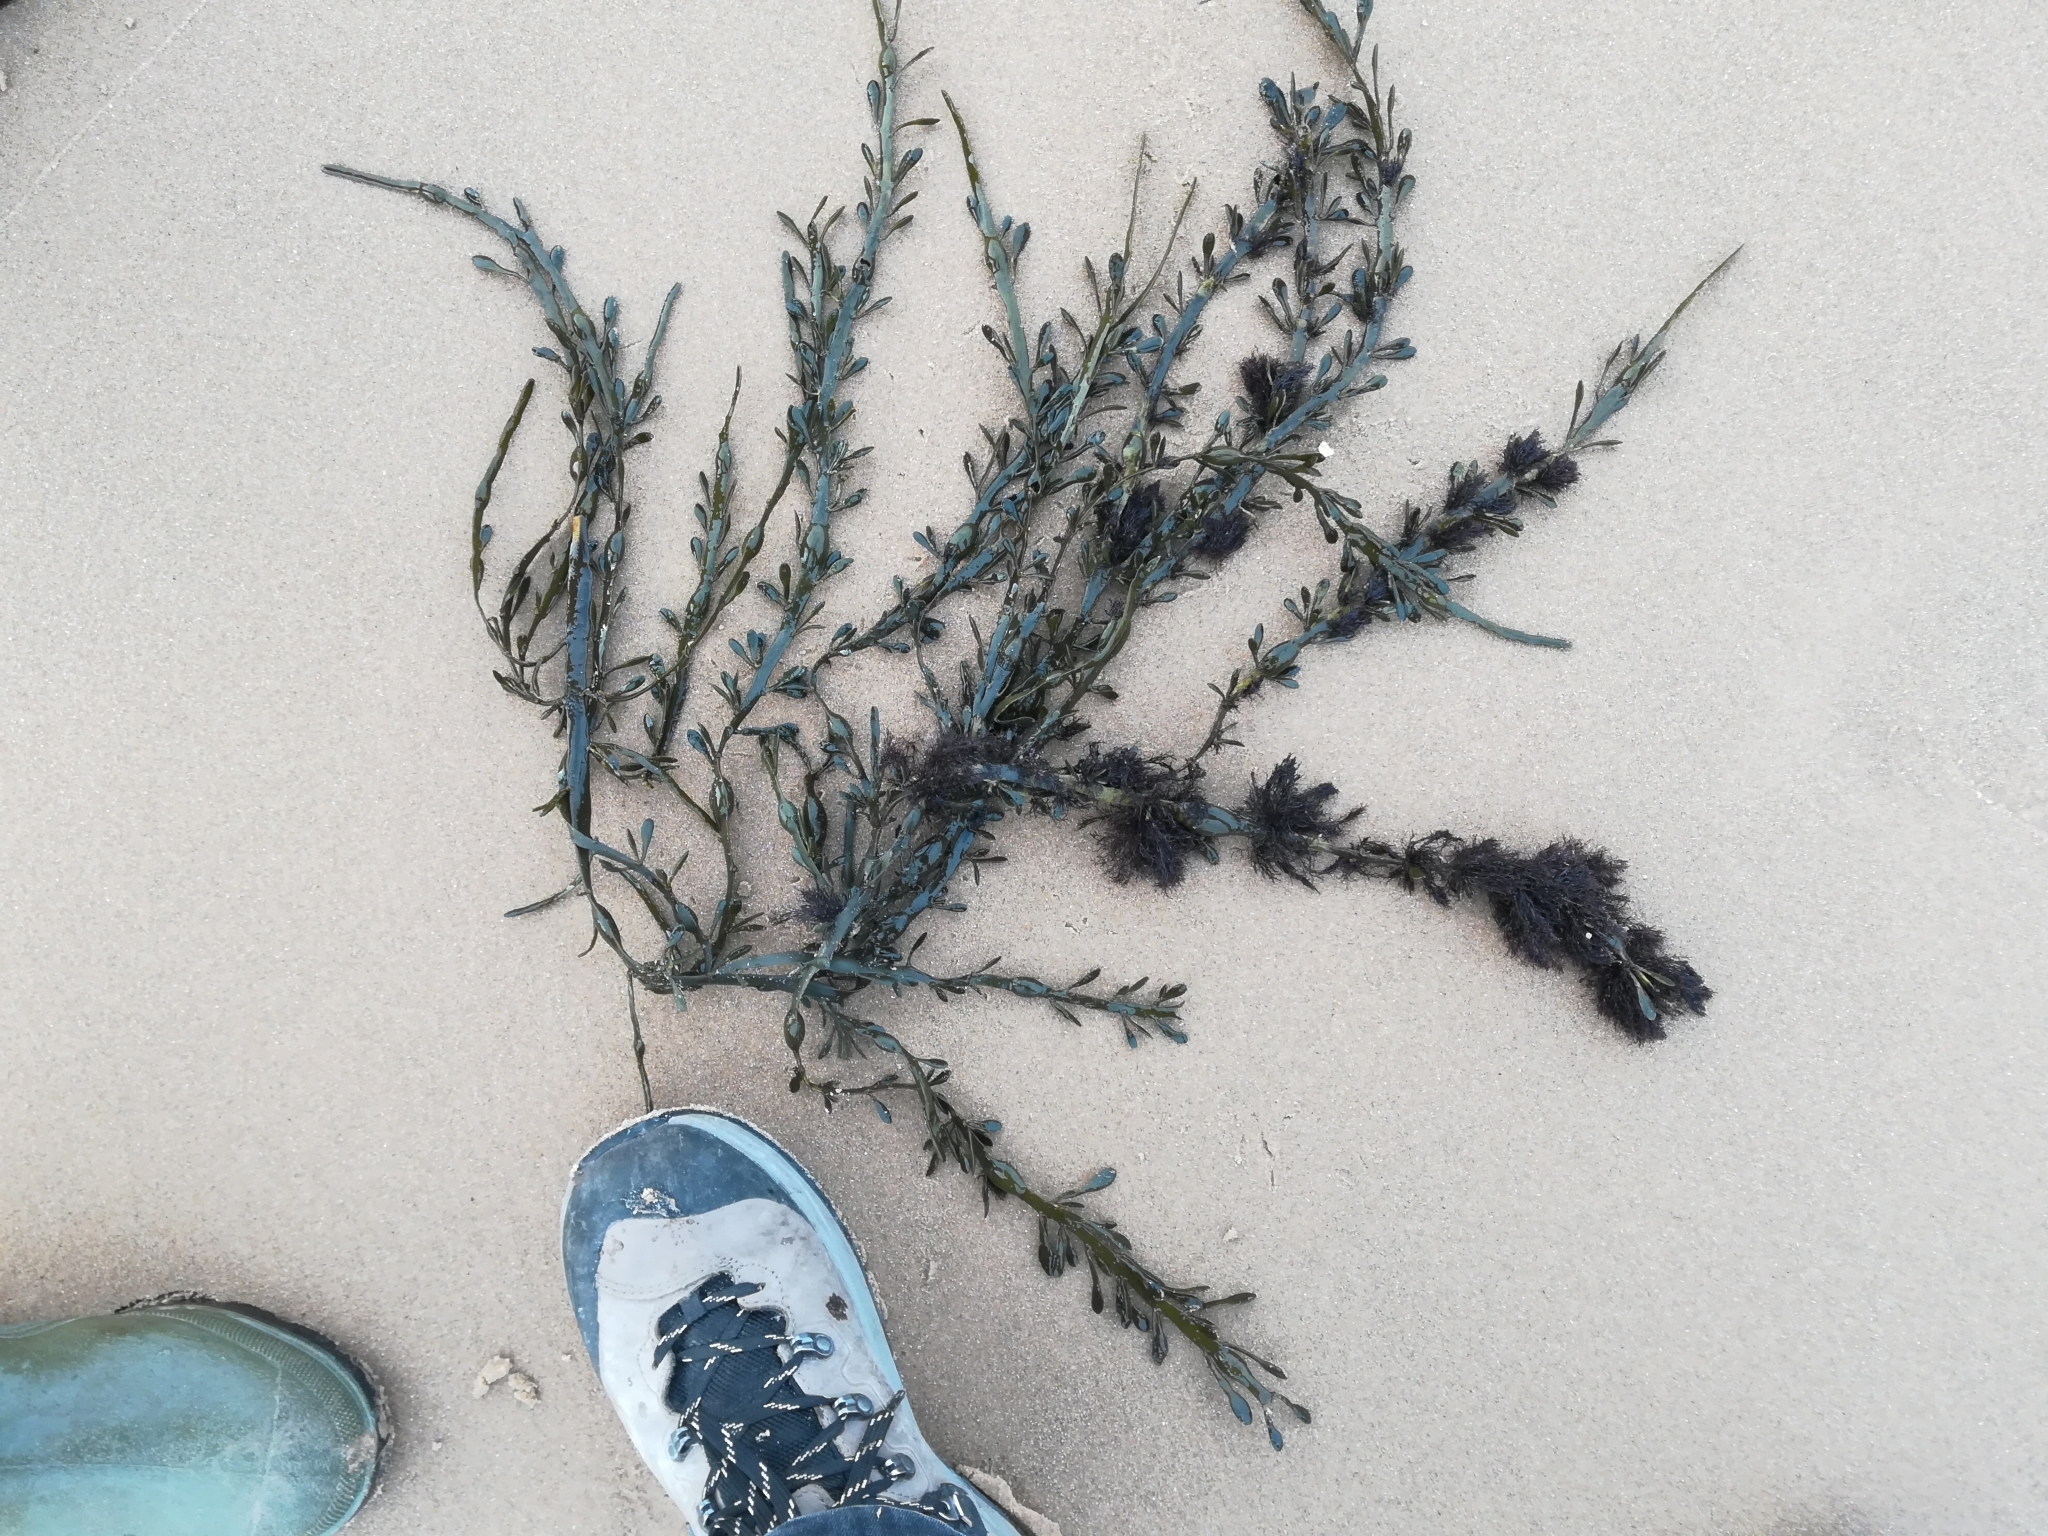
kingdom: Chromista
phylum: Ochrophyta
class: Phaeophyceae
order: Fucales
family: Fucaceae
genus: Ascophyllum
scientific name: Ascophyllum nodosum
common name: Knotted wrack
